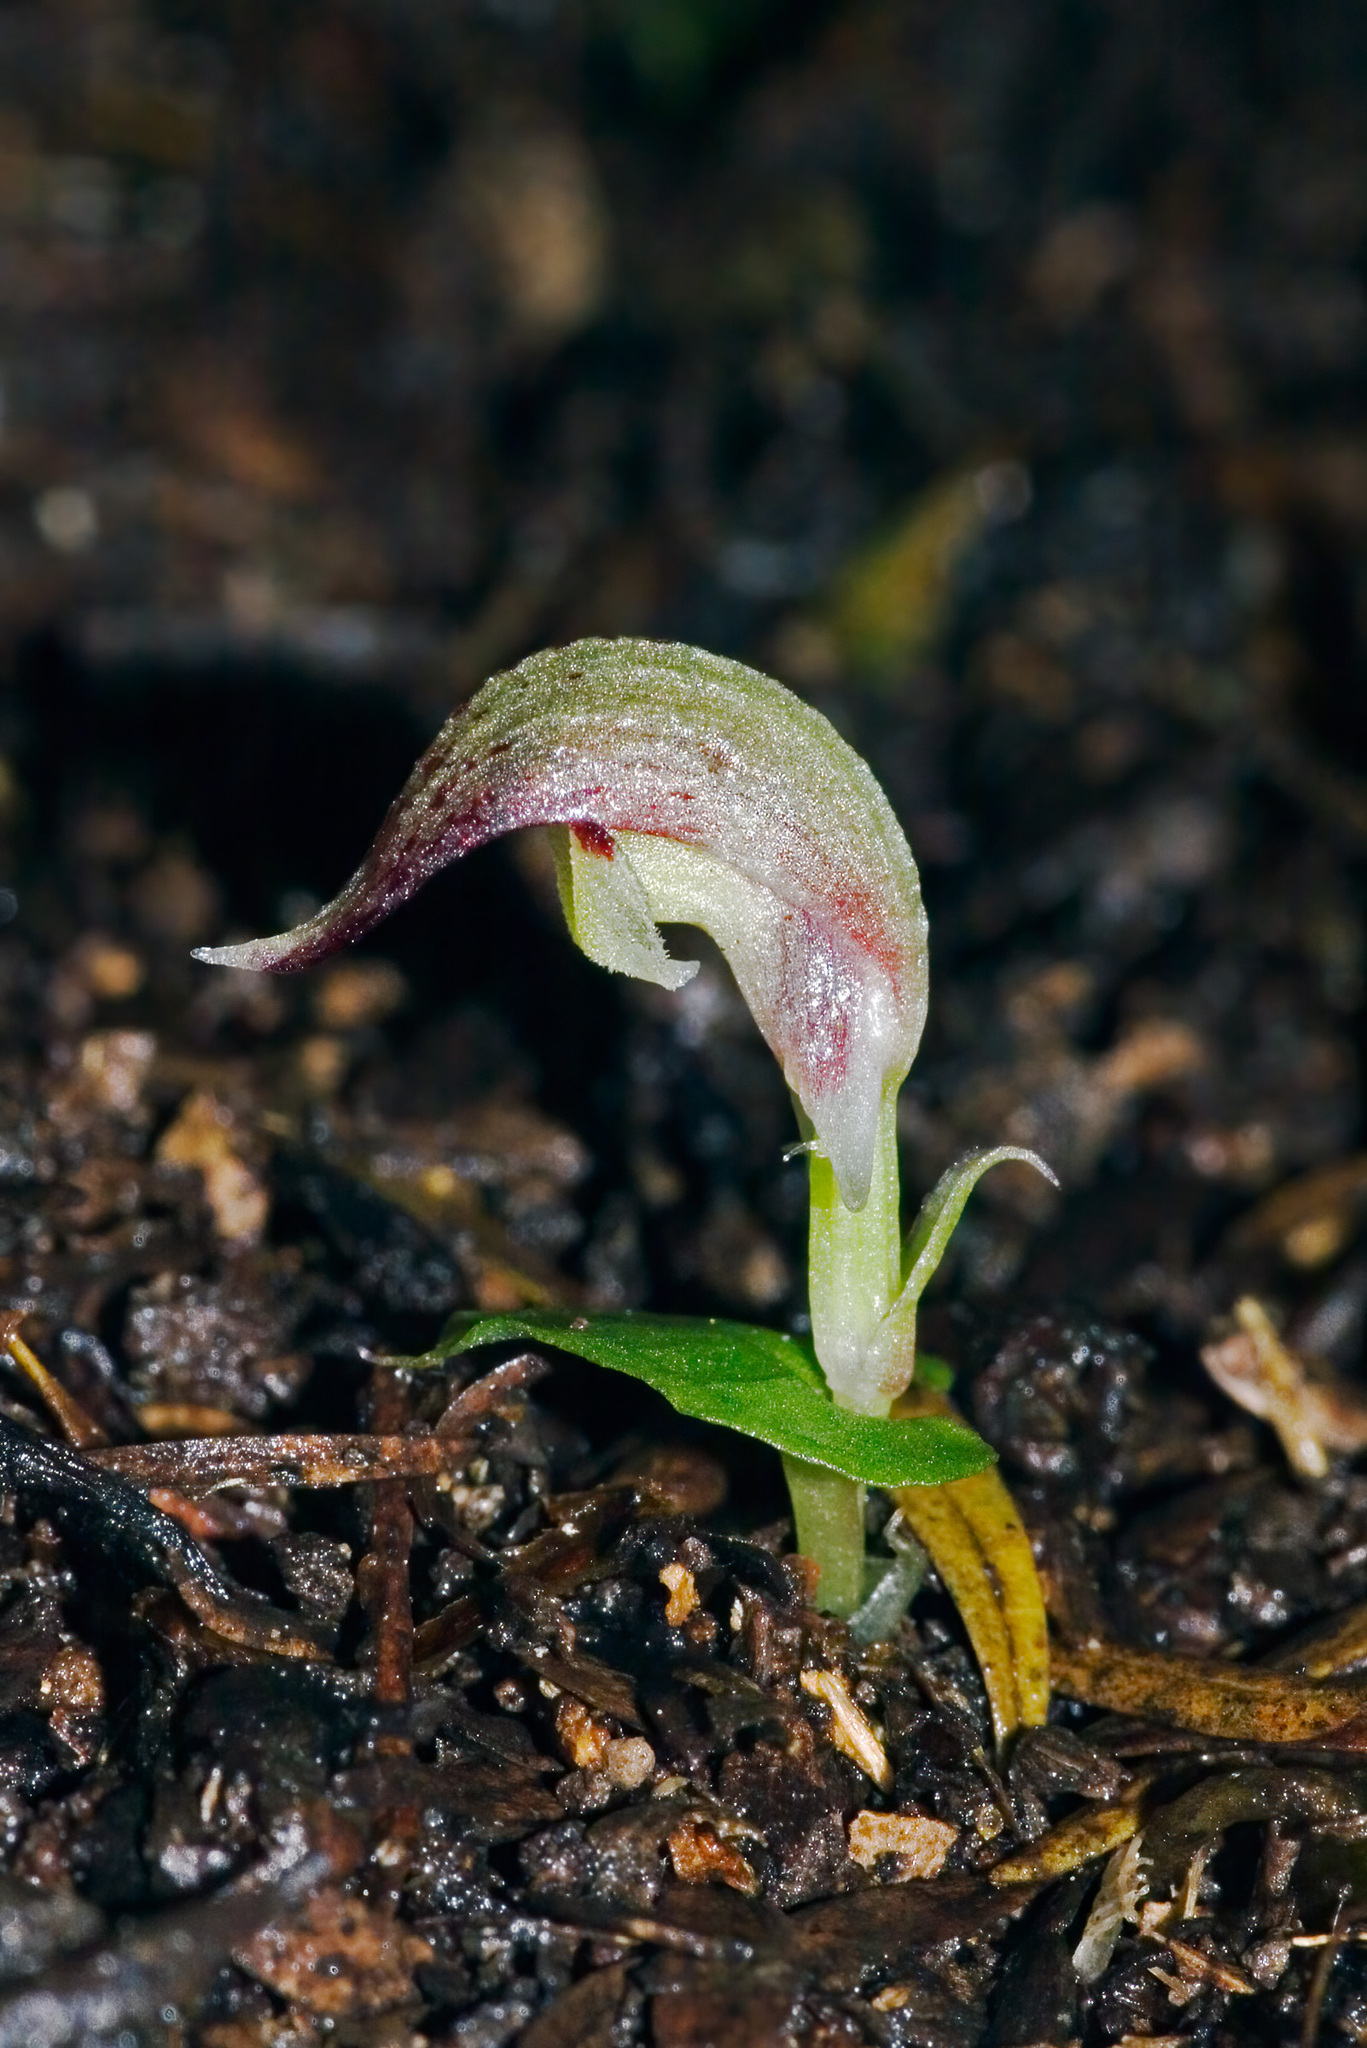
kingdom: Plantae
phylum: Tracheophyta
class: Liliopsida
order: Asparagales
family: Orchidaceae
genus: Corybas
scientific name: Corybas cheesemanii
